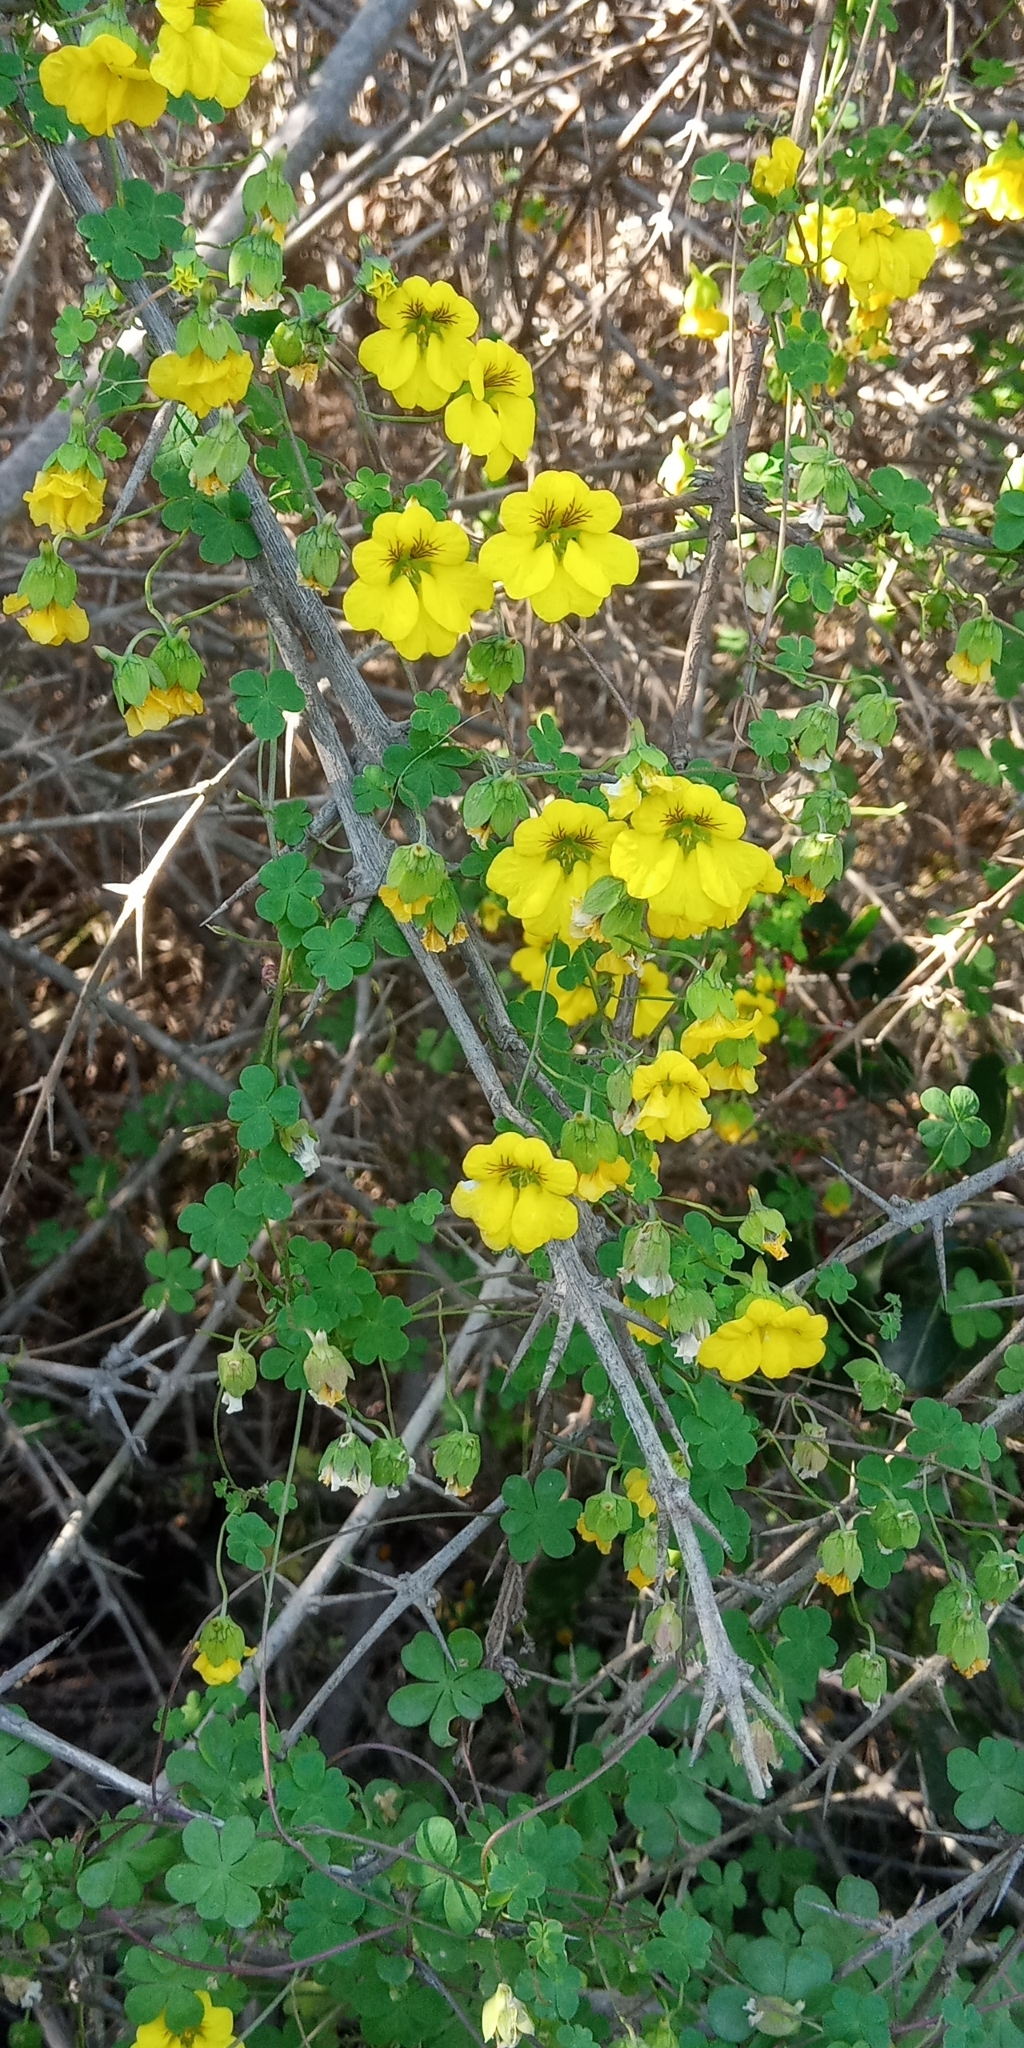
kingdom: Plantae
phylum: Tracheophyta
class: Magnoliopsida
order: Brassicales
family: Tropaeolaceae
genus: Tropaeolum
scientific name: Tropaeolum brachyceras
